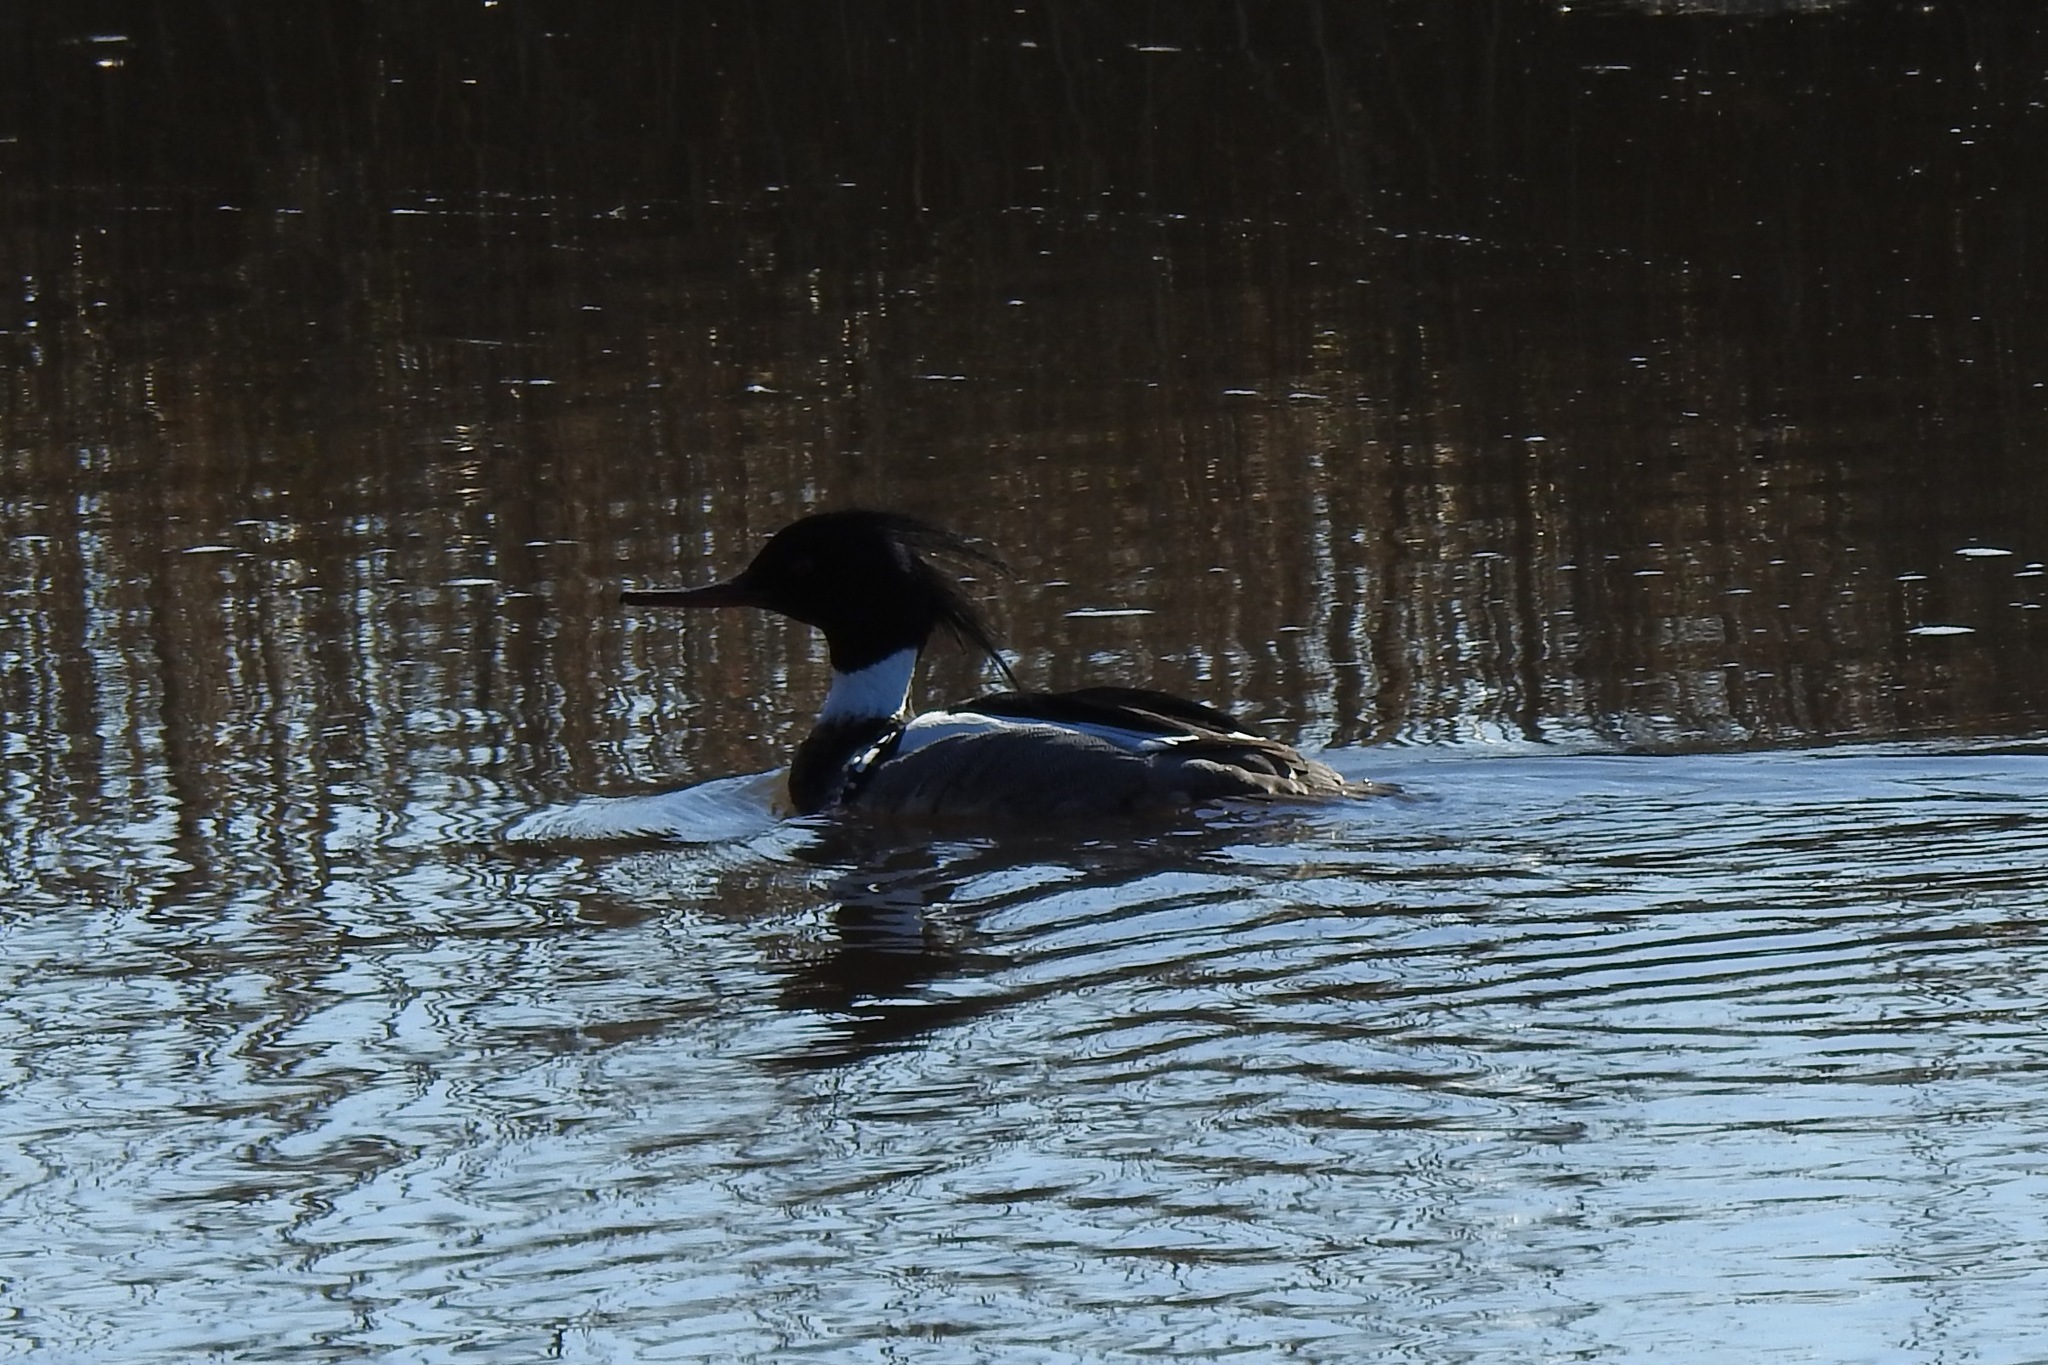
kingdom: Animalia
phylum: Chordata
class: Aves
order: Anseriformes
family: Anatidae
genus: Mergus
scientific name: Mergus serrator
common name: Red-breasted merganser
